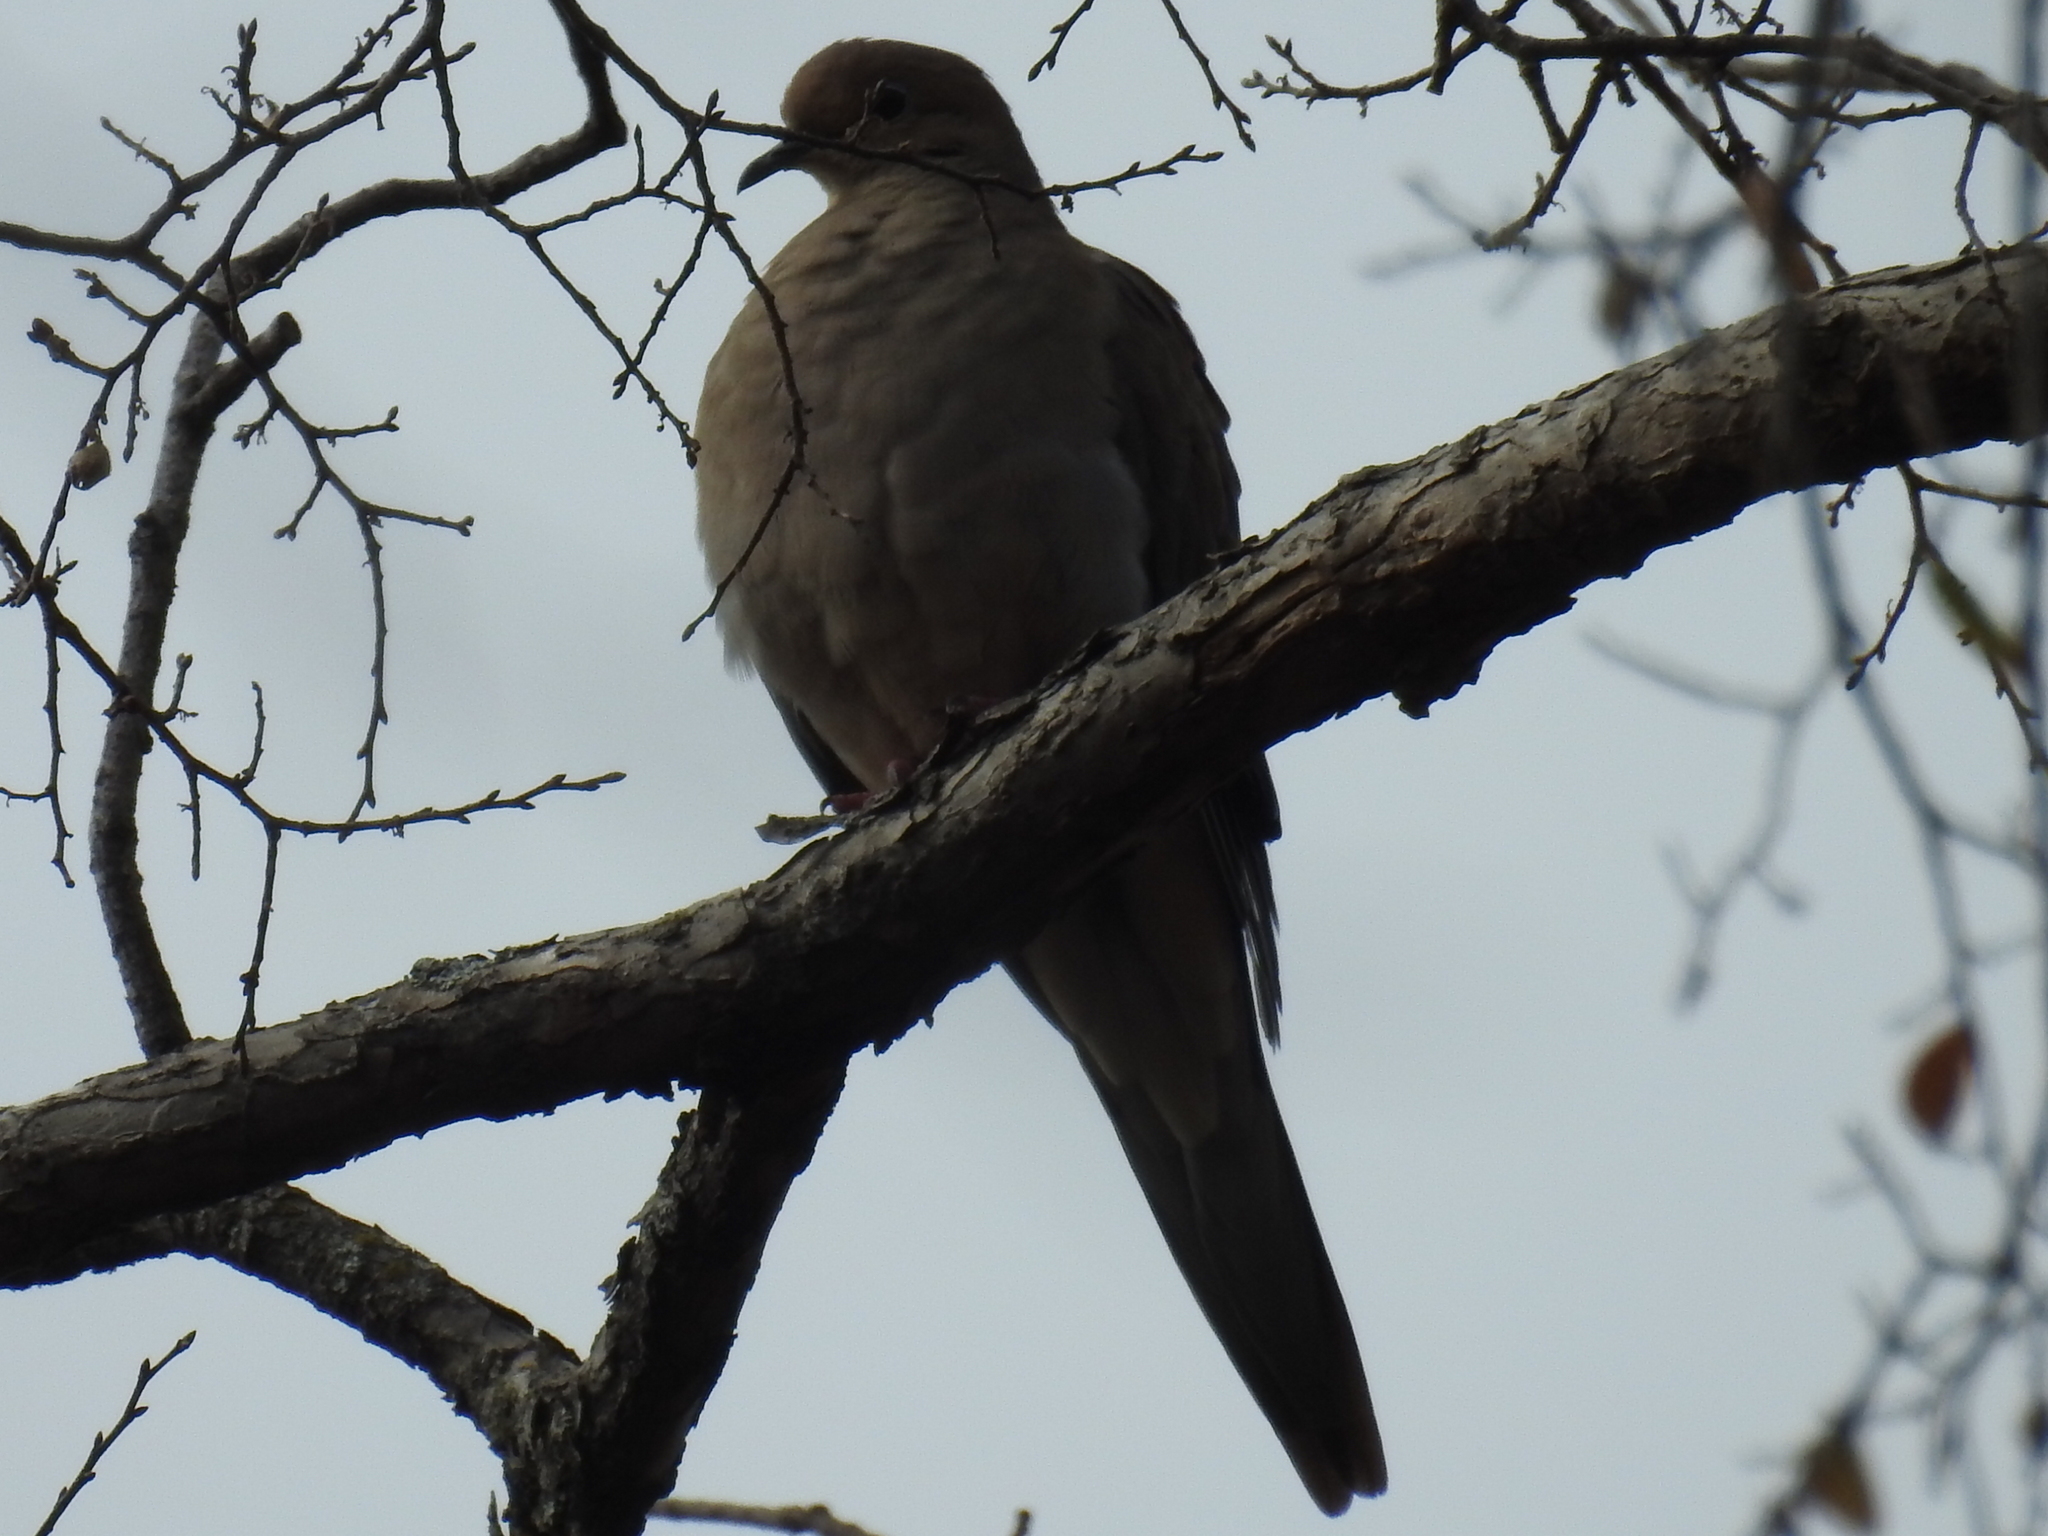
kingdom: Animalia
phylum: Chordata
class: Aves
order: Columbiformes
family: Columbidae
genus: Zenaida
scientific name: Zenaida macroura
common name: Mourning dove
